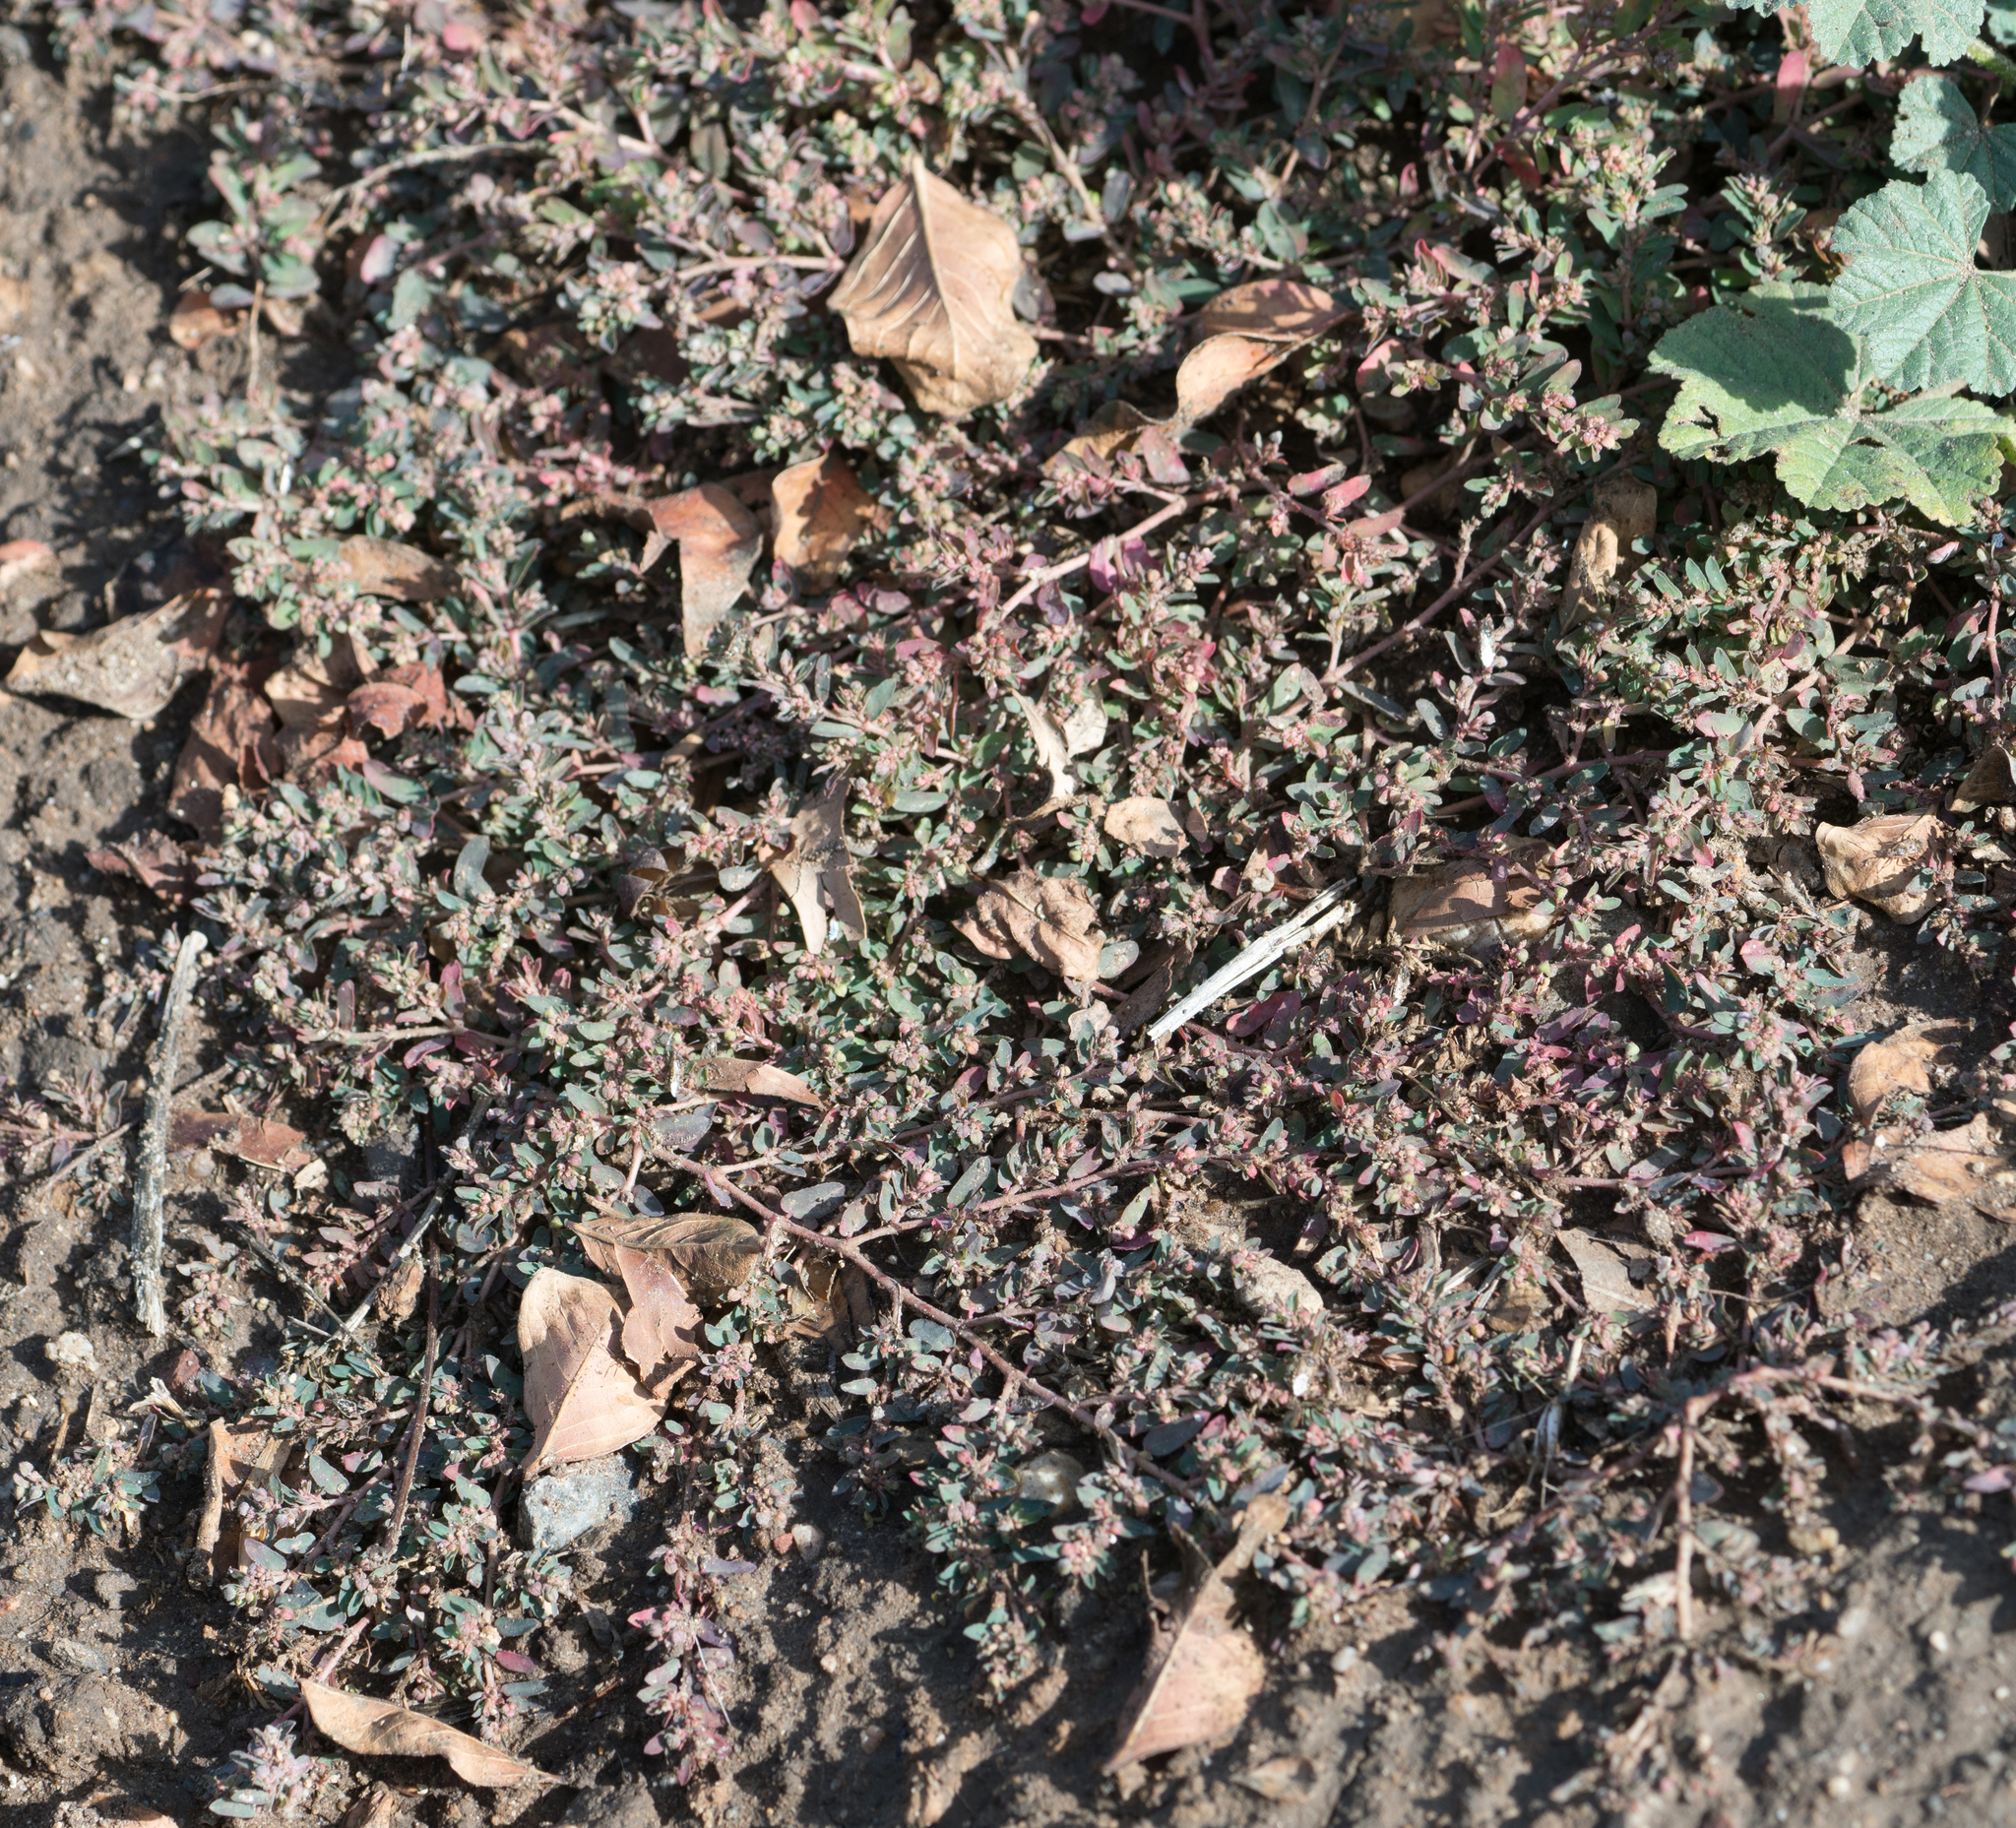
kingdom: Plantae
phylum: Tracheophyta
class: Magnoliopsida
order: Malpighiales
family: Euphorbiaceae
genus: Euphorbia
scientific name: Euphorbia maculata
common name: Spotted spurge
